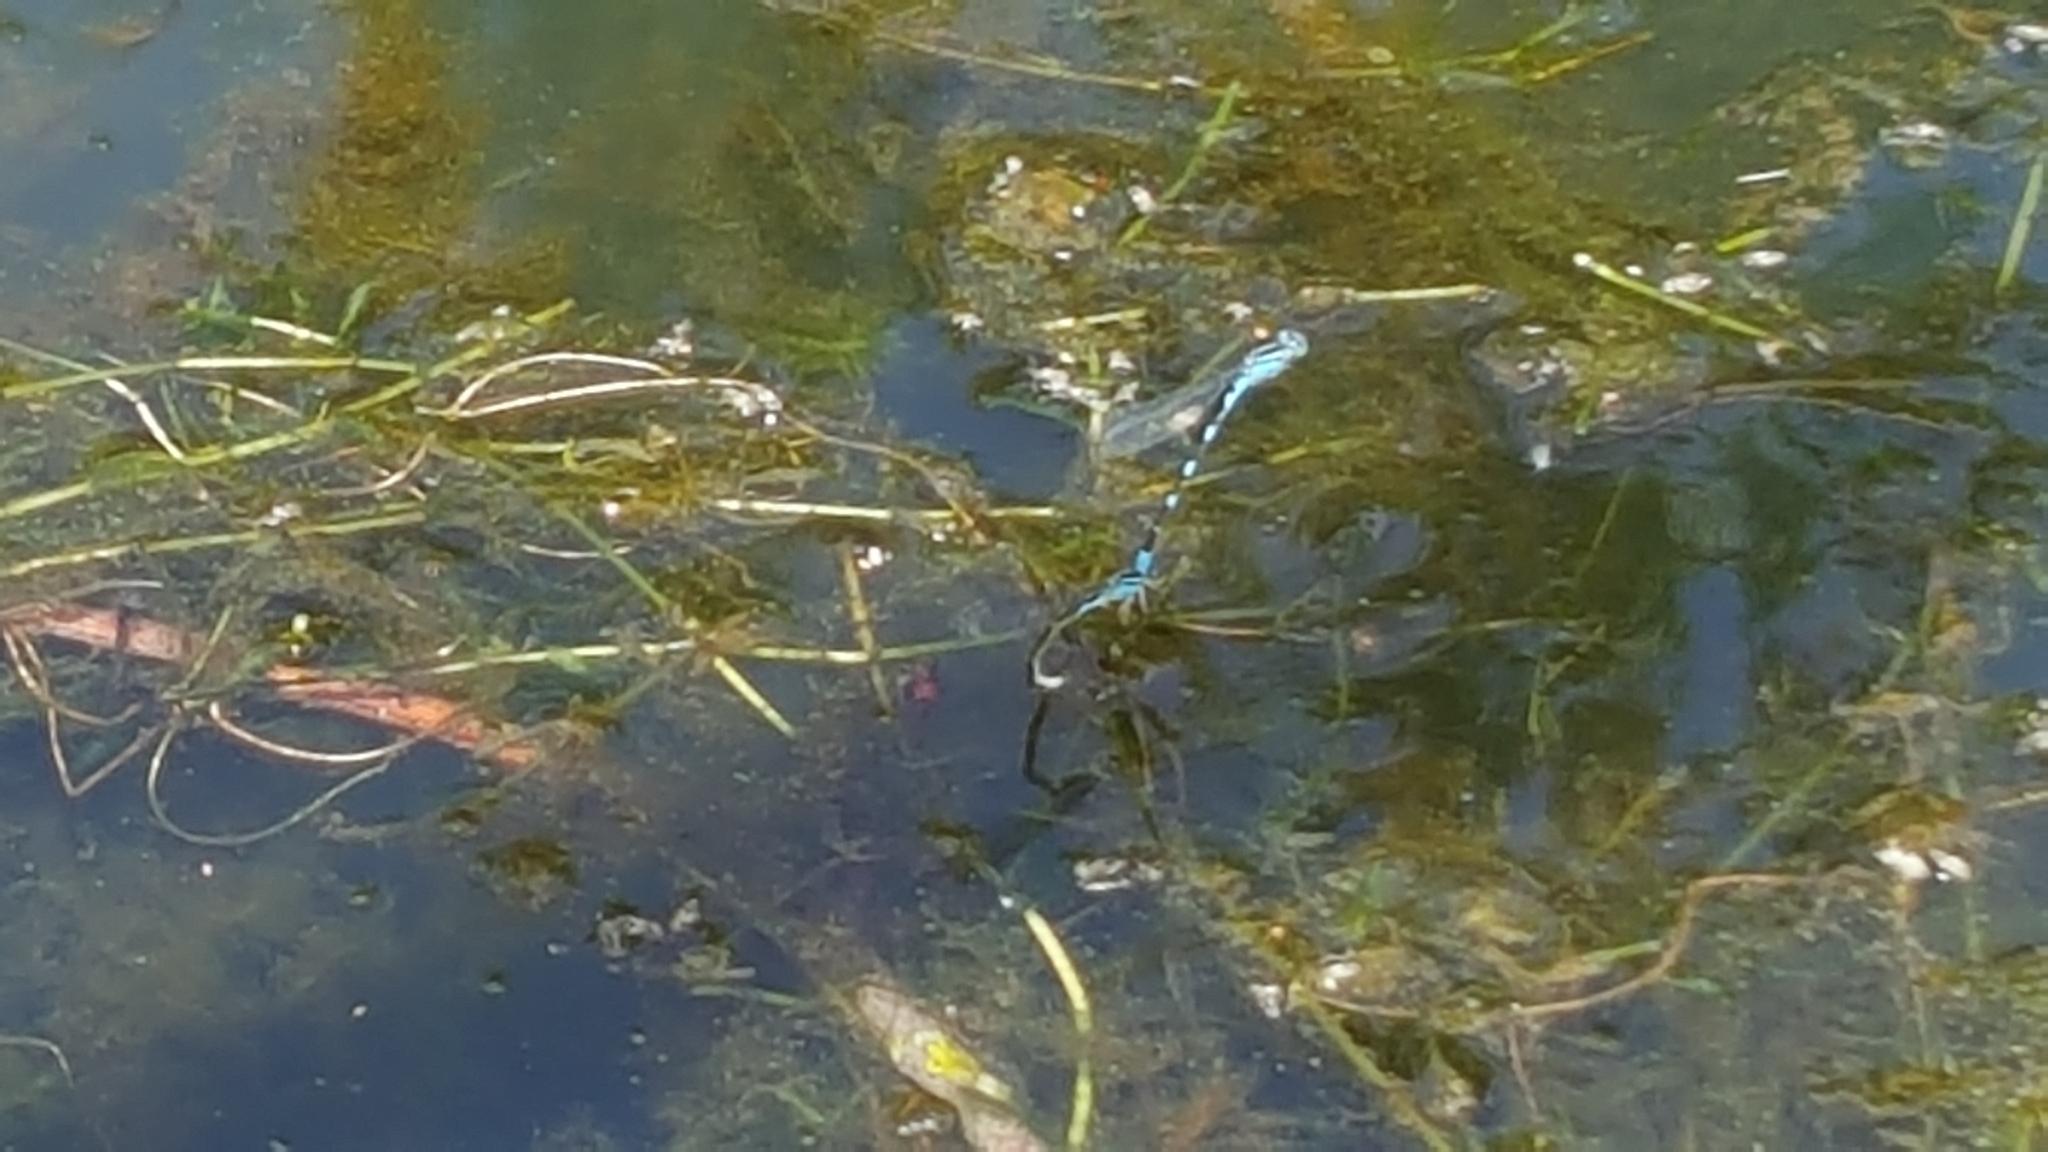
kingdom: Animalia
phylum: Arthropoda
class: Insecta
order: Odonata
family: Coenagrionidae
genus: Enallagma
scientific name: Enallagma carunculatum
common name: Tule bluet
